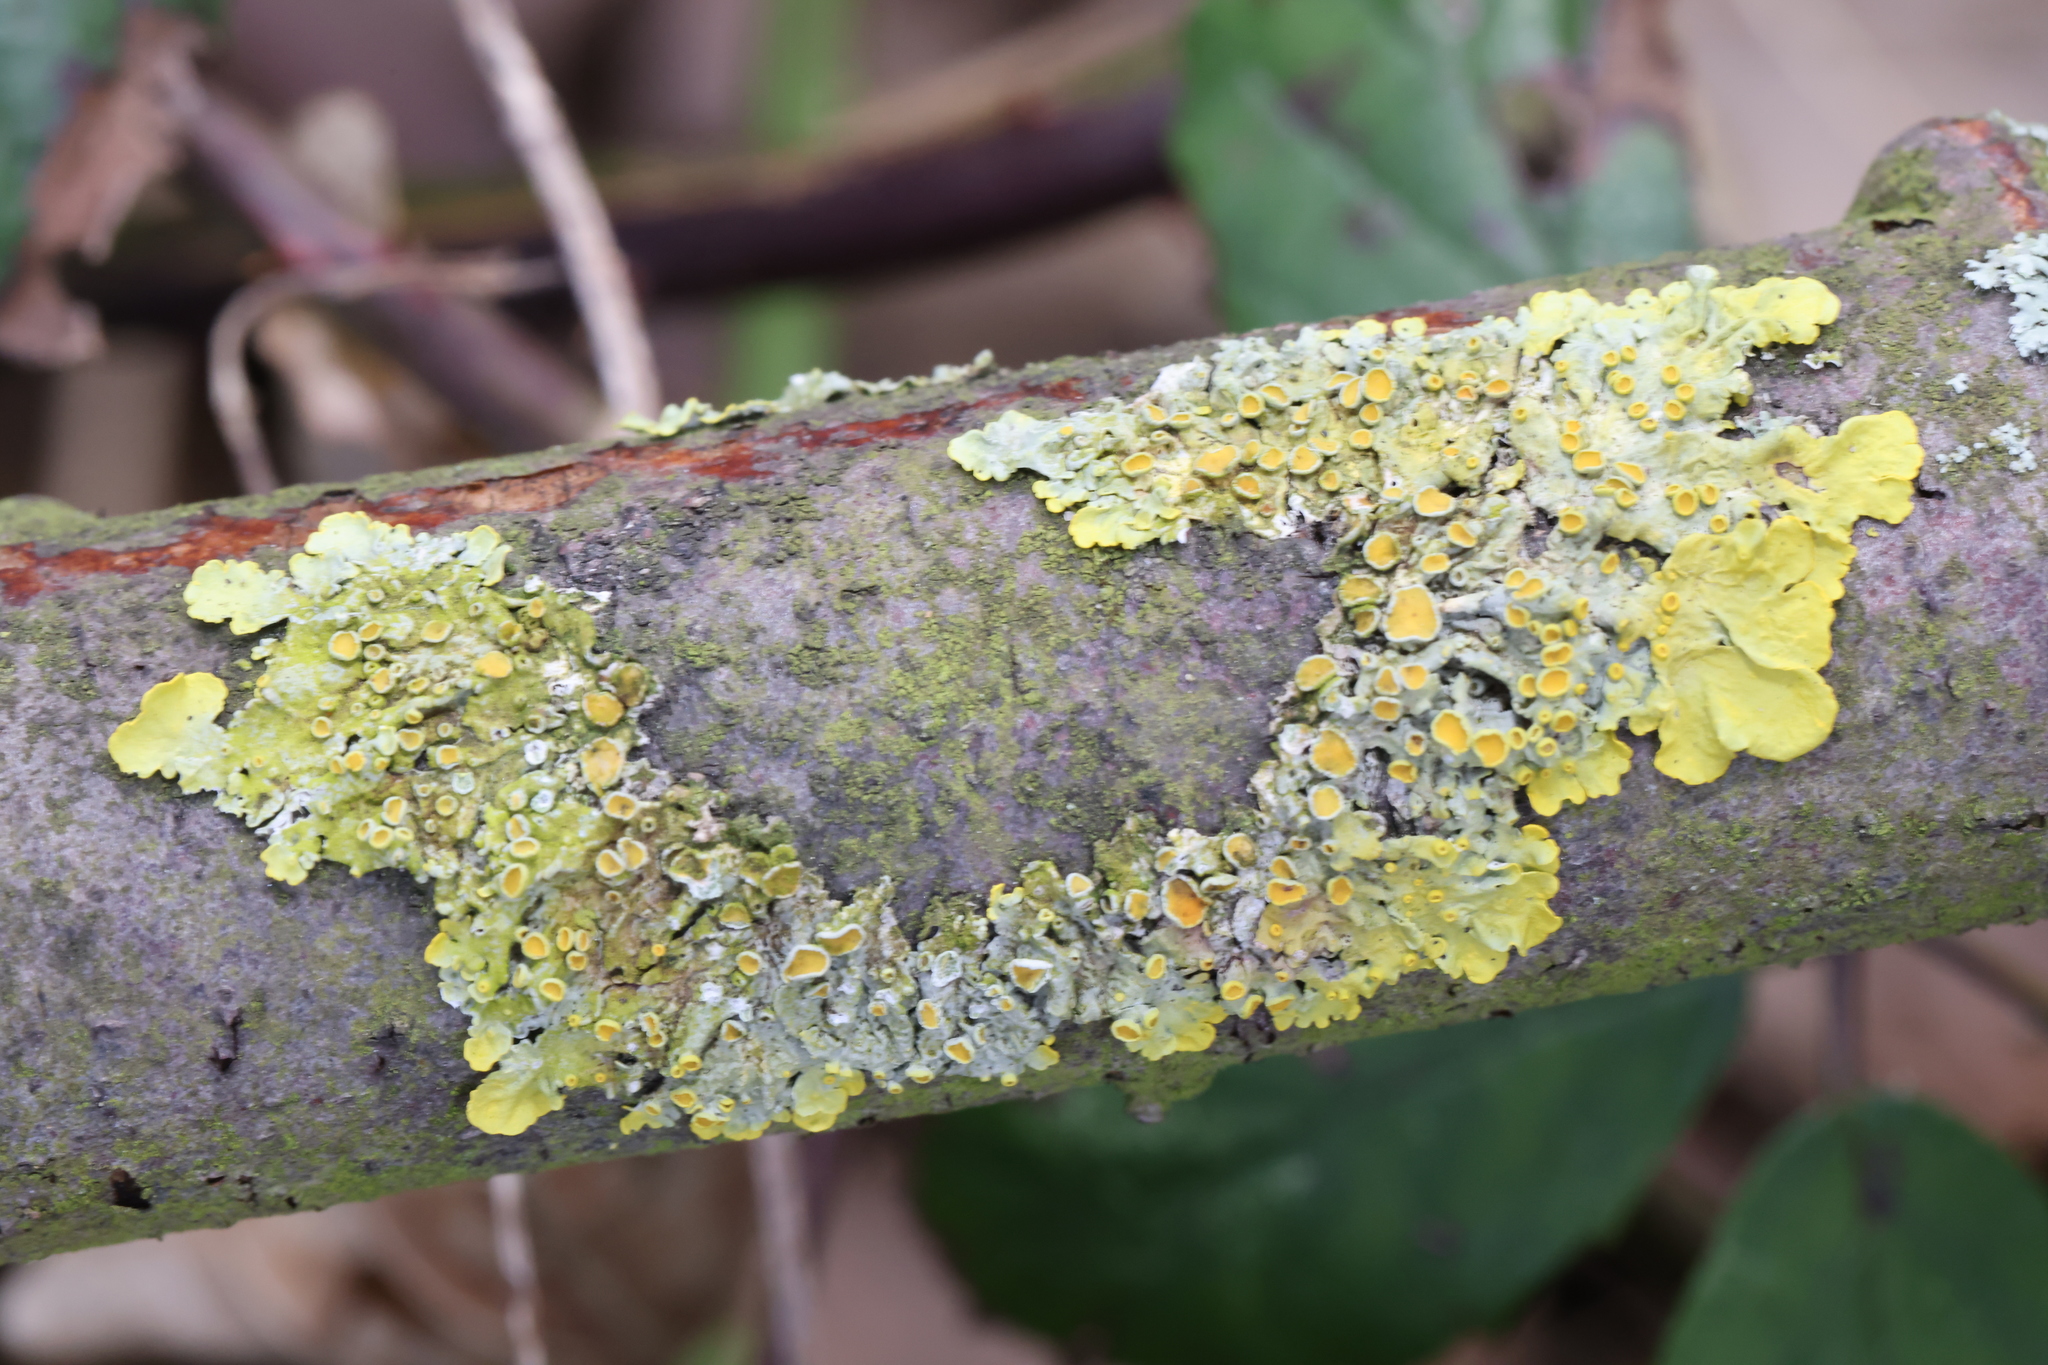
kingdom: Fungi
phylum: Ascomycota
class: Lecanoromycetes
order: Teloschistales
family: Teloschistaceae
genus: Xanthoria
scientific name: Xanthoria parietina
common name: Common orange lichen
